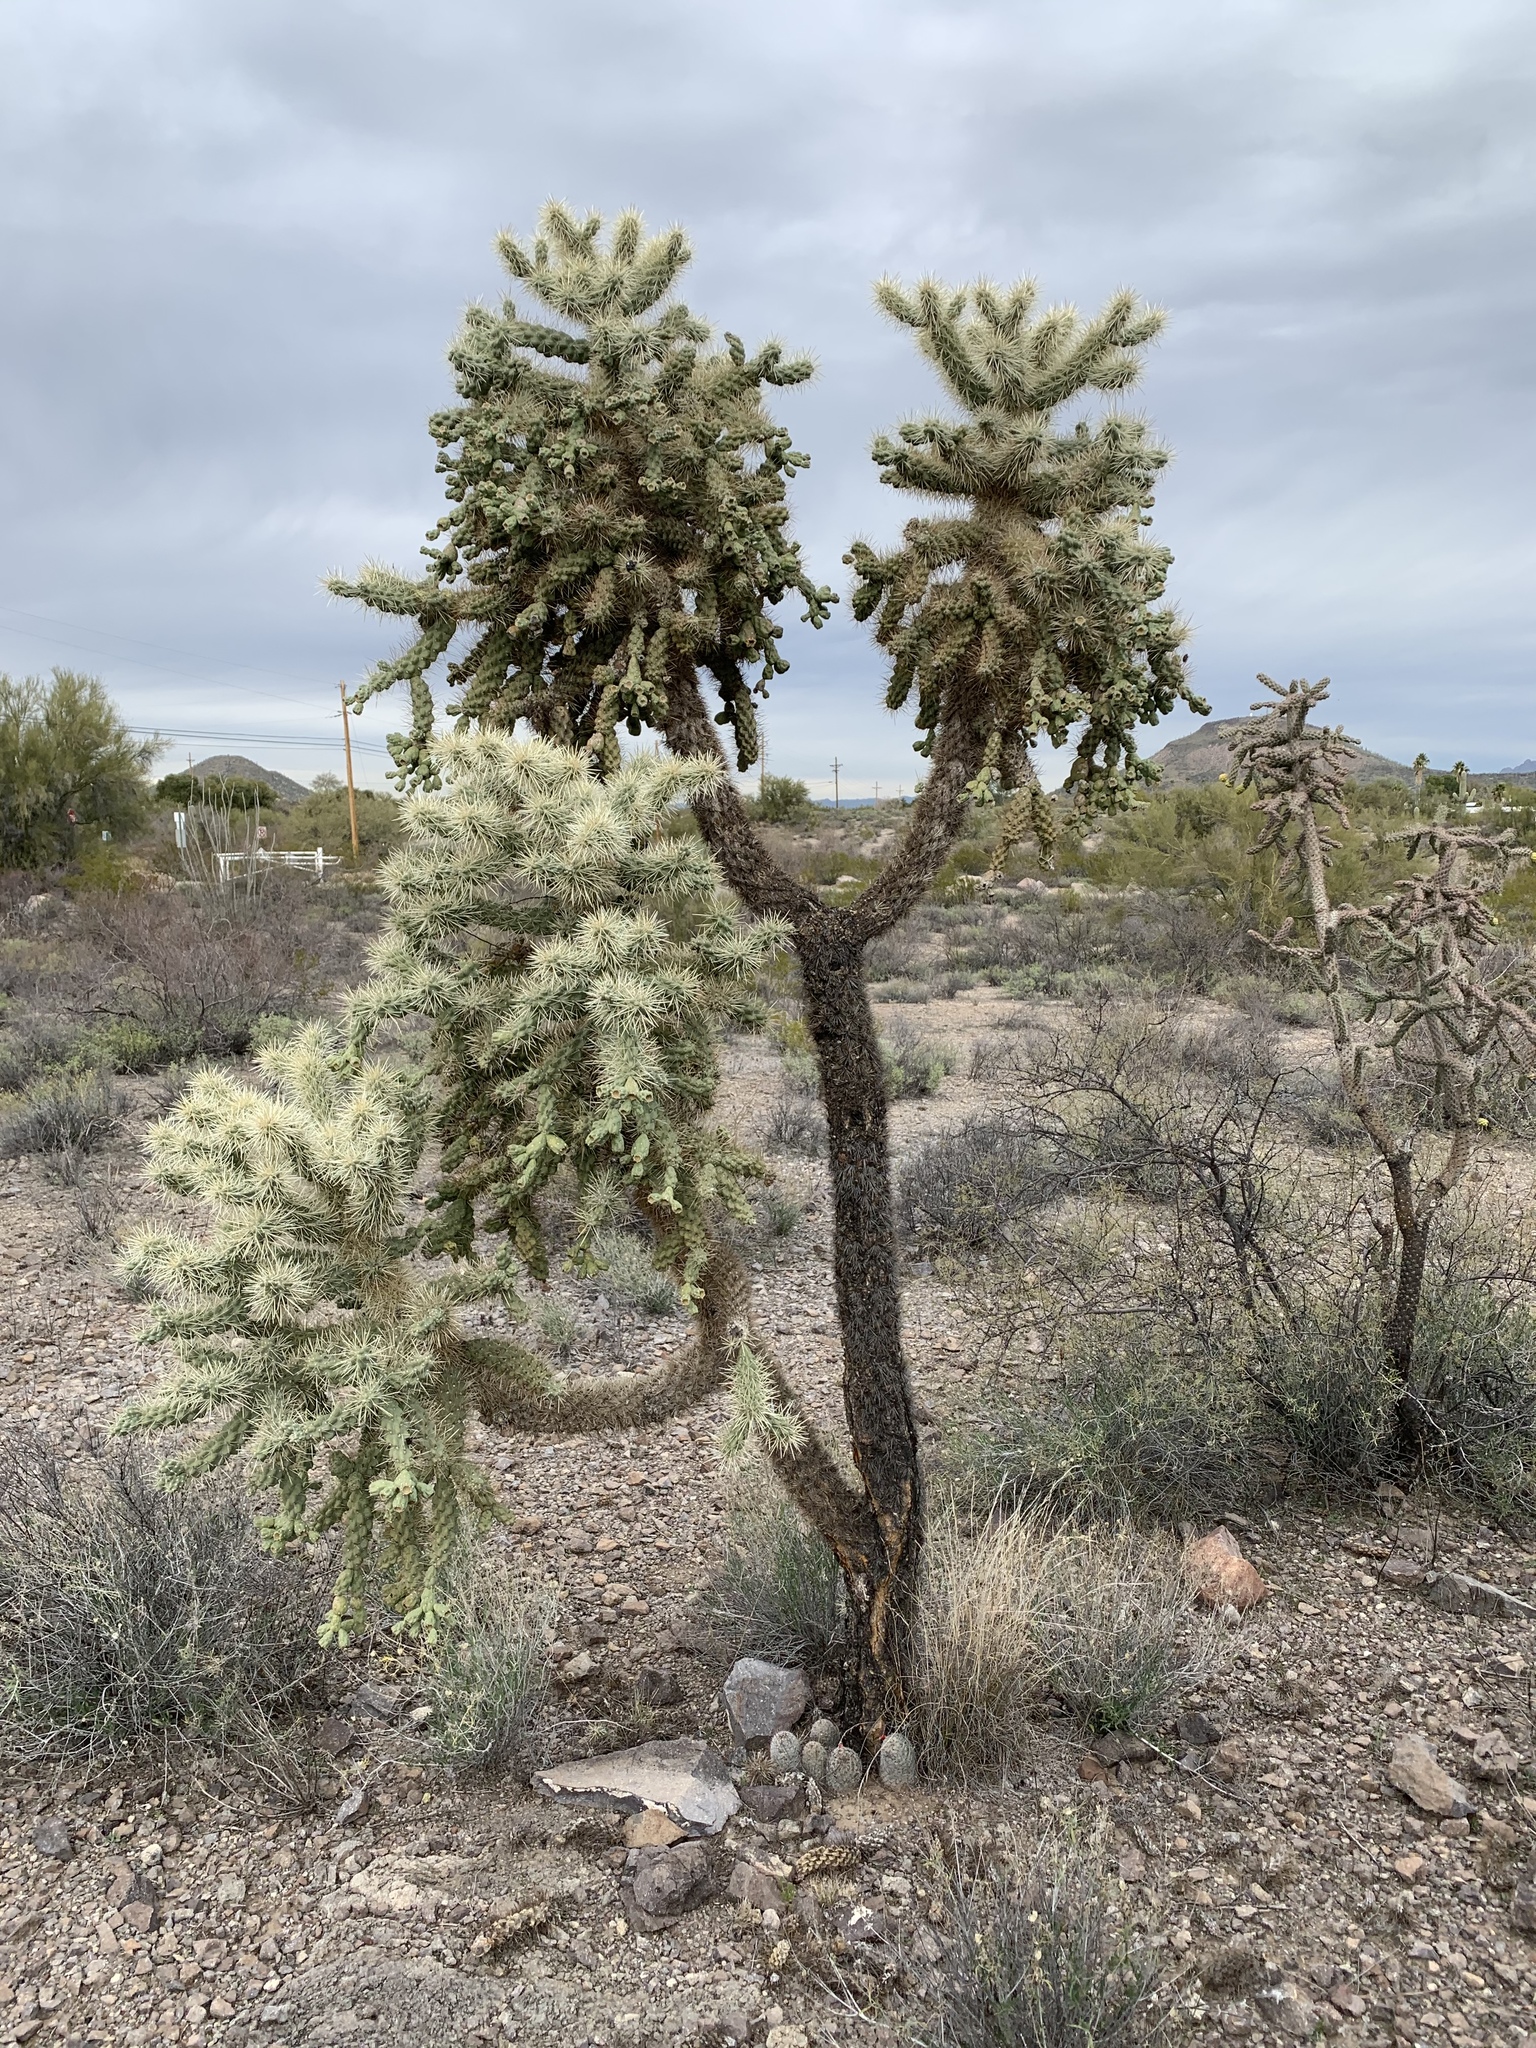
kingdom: Plantae
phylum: Tracheophyta
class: Magnoliopsida
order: Caryophyllales
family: Cactaceae
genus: Cylindropuntia
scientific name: Cylindropuntia fulgida
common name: Jumping cholla
